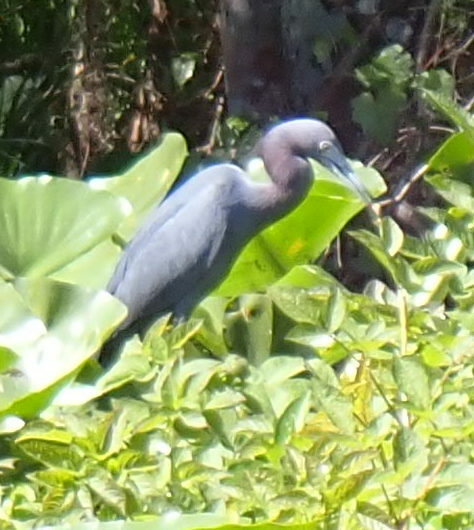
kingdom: Animalia
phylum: Chordata
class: Aves
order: Pelecaniformes
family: Ardeidae
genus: Egretta
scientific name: Egretta caerulea
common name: Little blue heron
